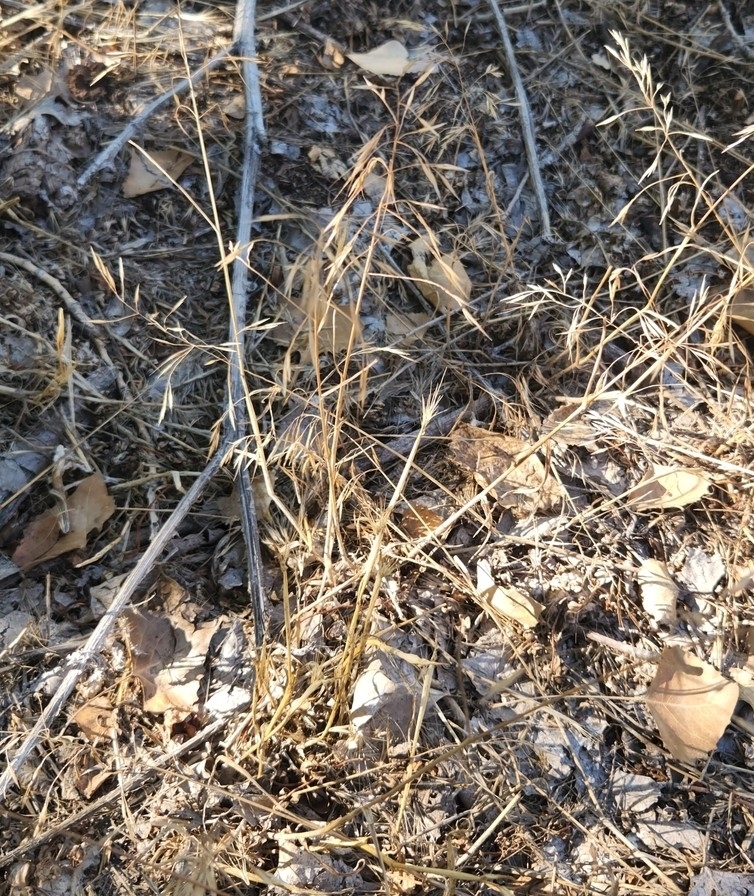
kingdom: Plantae
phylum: Tracheophyta
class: Liliopsida
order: Poales
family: Poaceae
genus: Bromus
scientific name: Bromus tectorum
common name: Cheatgrass
